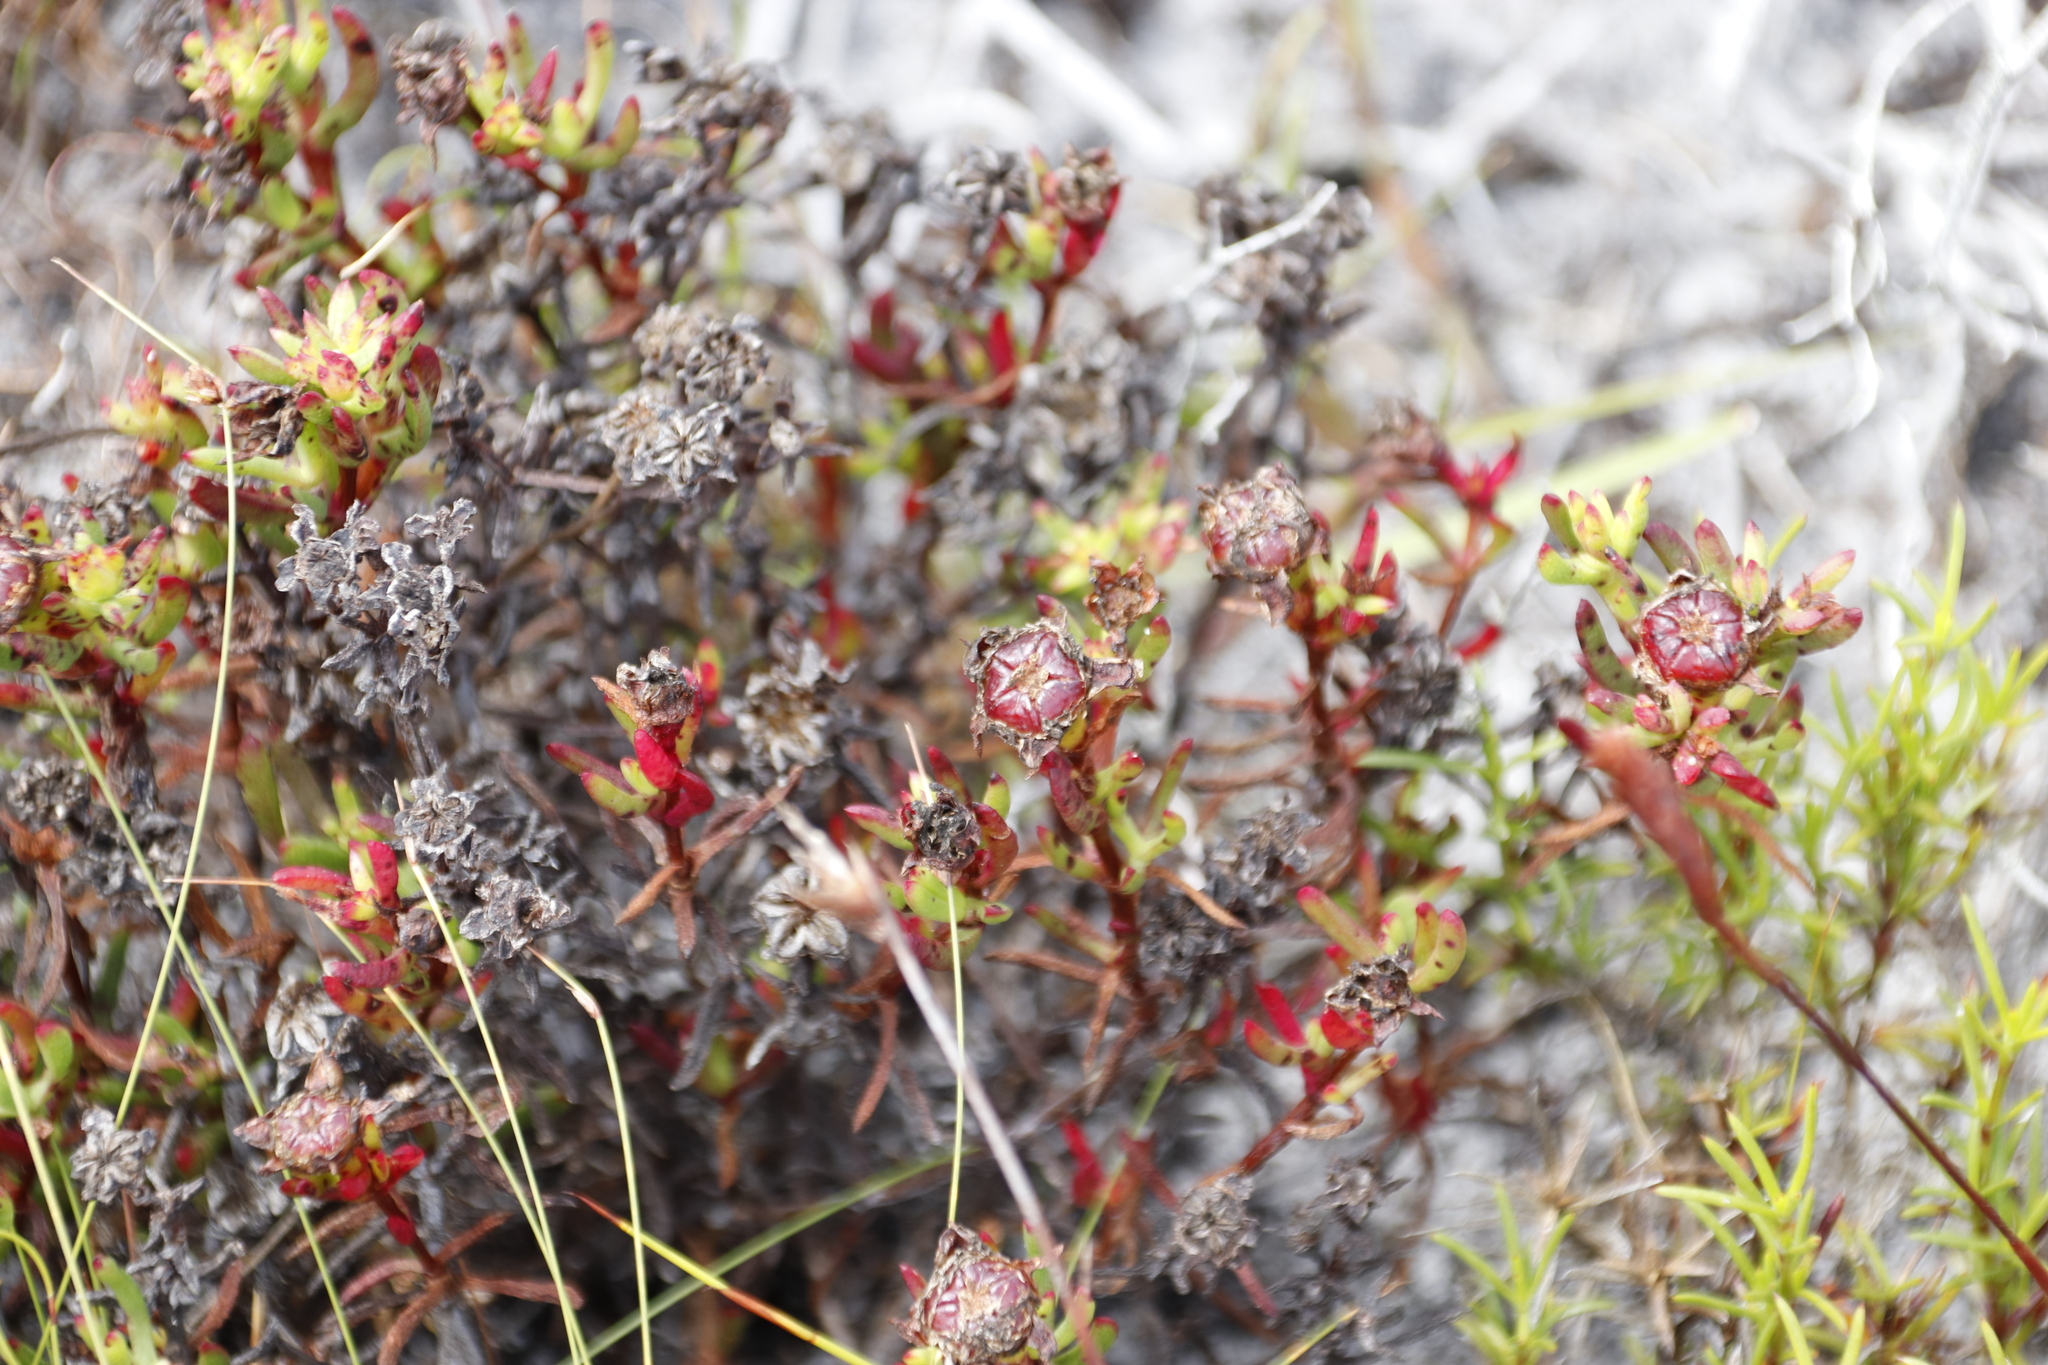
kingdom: Plantae
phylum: Tracheophyta
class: Magnoliopsida
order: Caryophyllales
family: Aizoaceae
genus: Lampranthus
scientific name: Lampranthus bicolor
